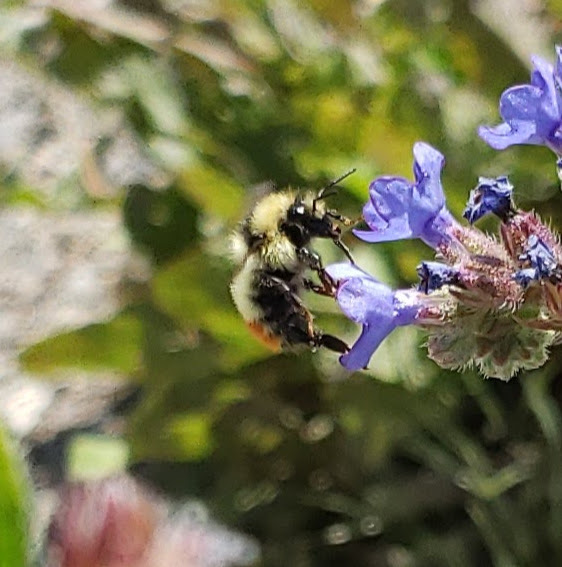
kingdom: Animalia
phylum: Arthropoda
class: Insecta
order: Hymenoptera
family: Apidae
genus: Bombus
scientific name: Bombus centralis
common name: Central bumble bee
